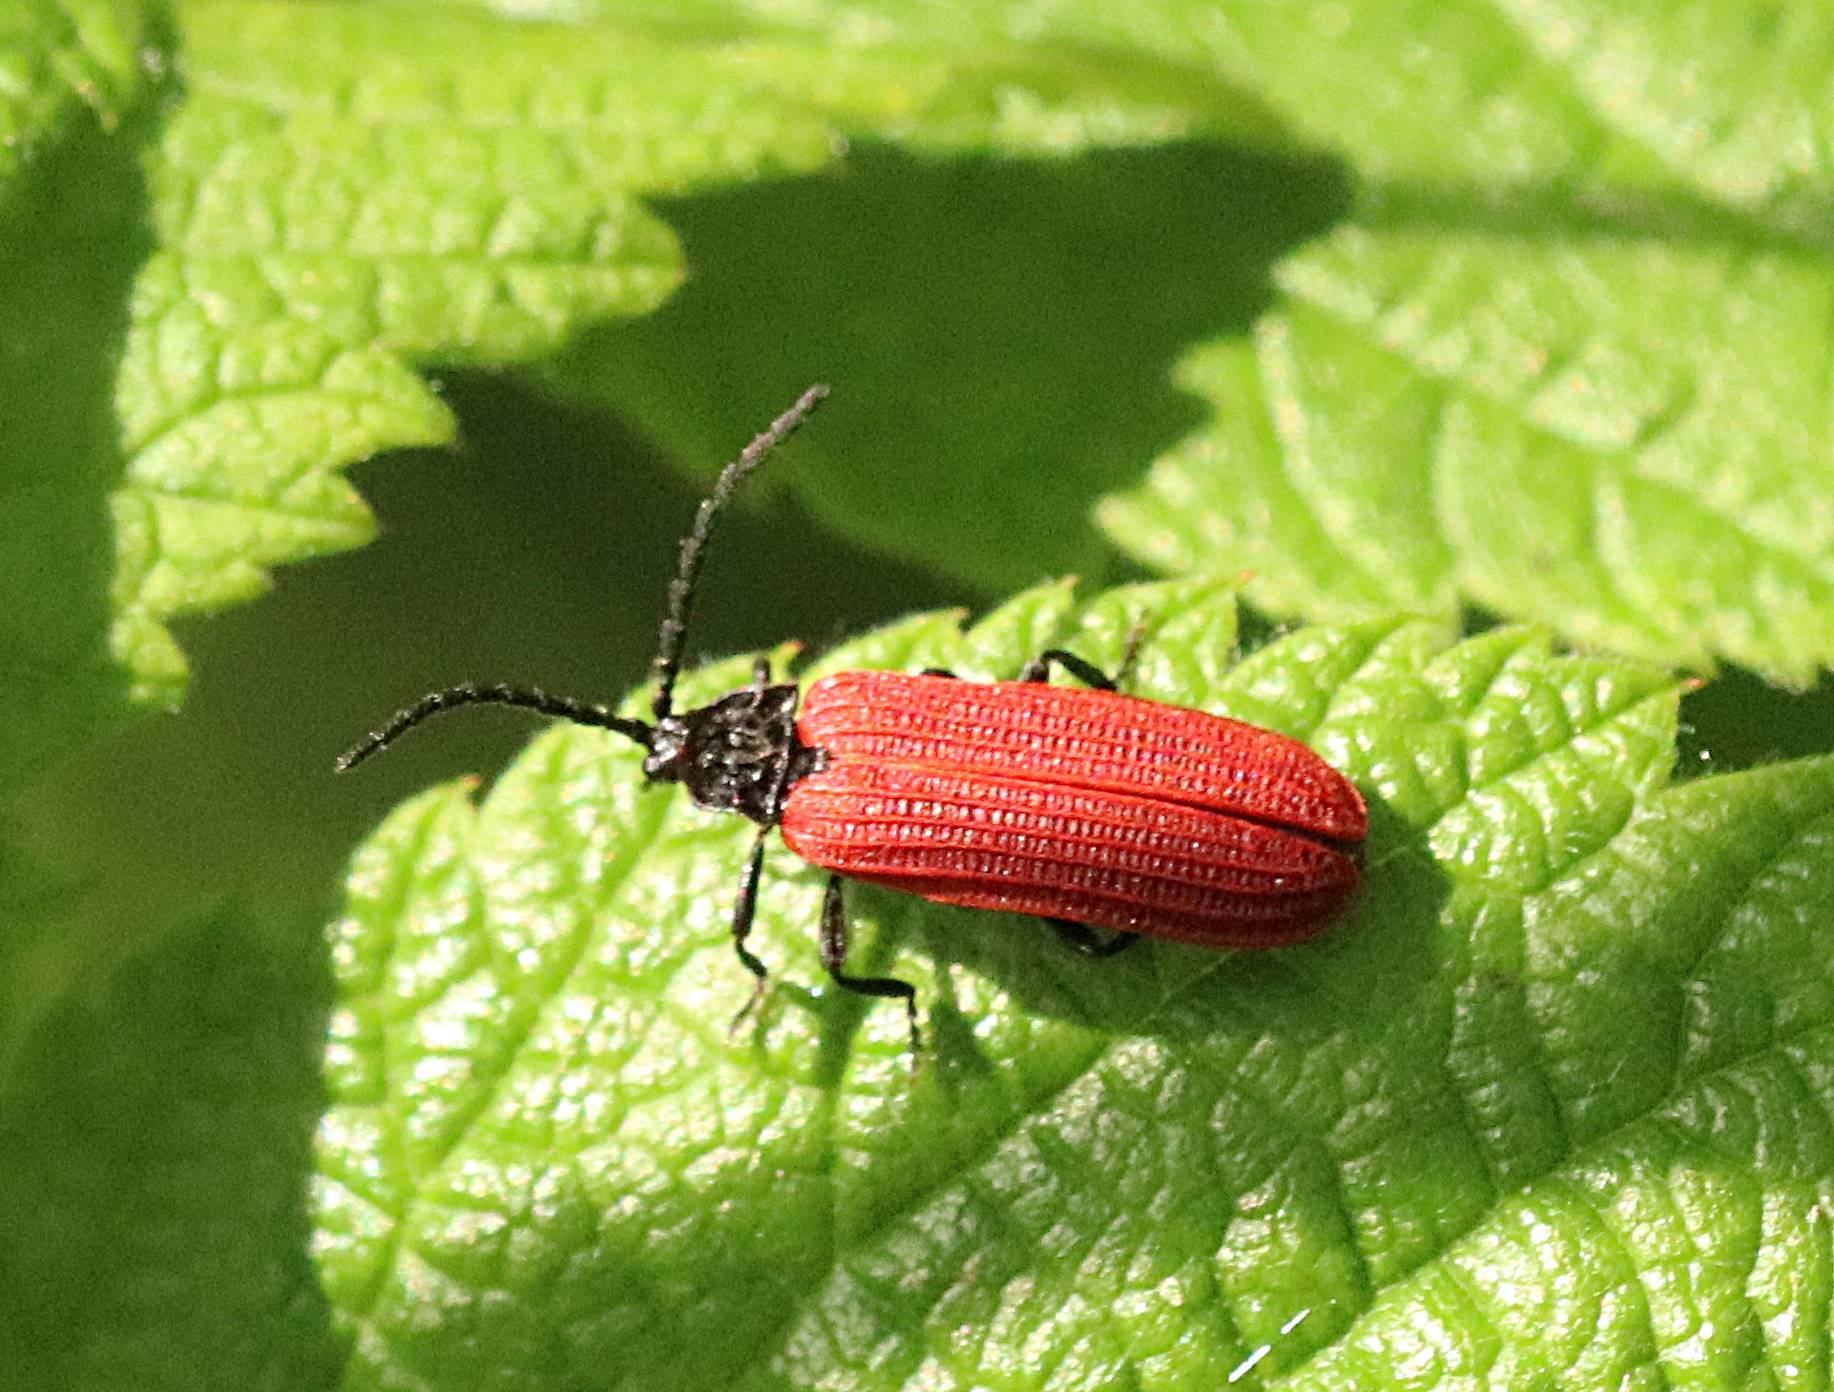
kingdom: Animalia
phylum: Arthropoda
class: Insecta
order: Coleoptera
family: Lycidae
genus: Pyropterus
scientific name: Pyropterus nigroruber
